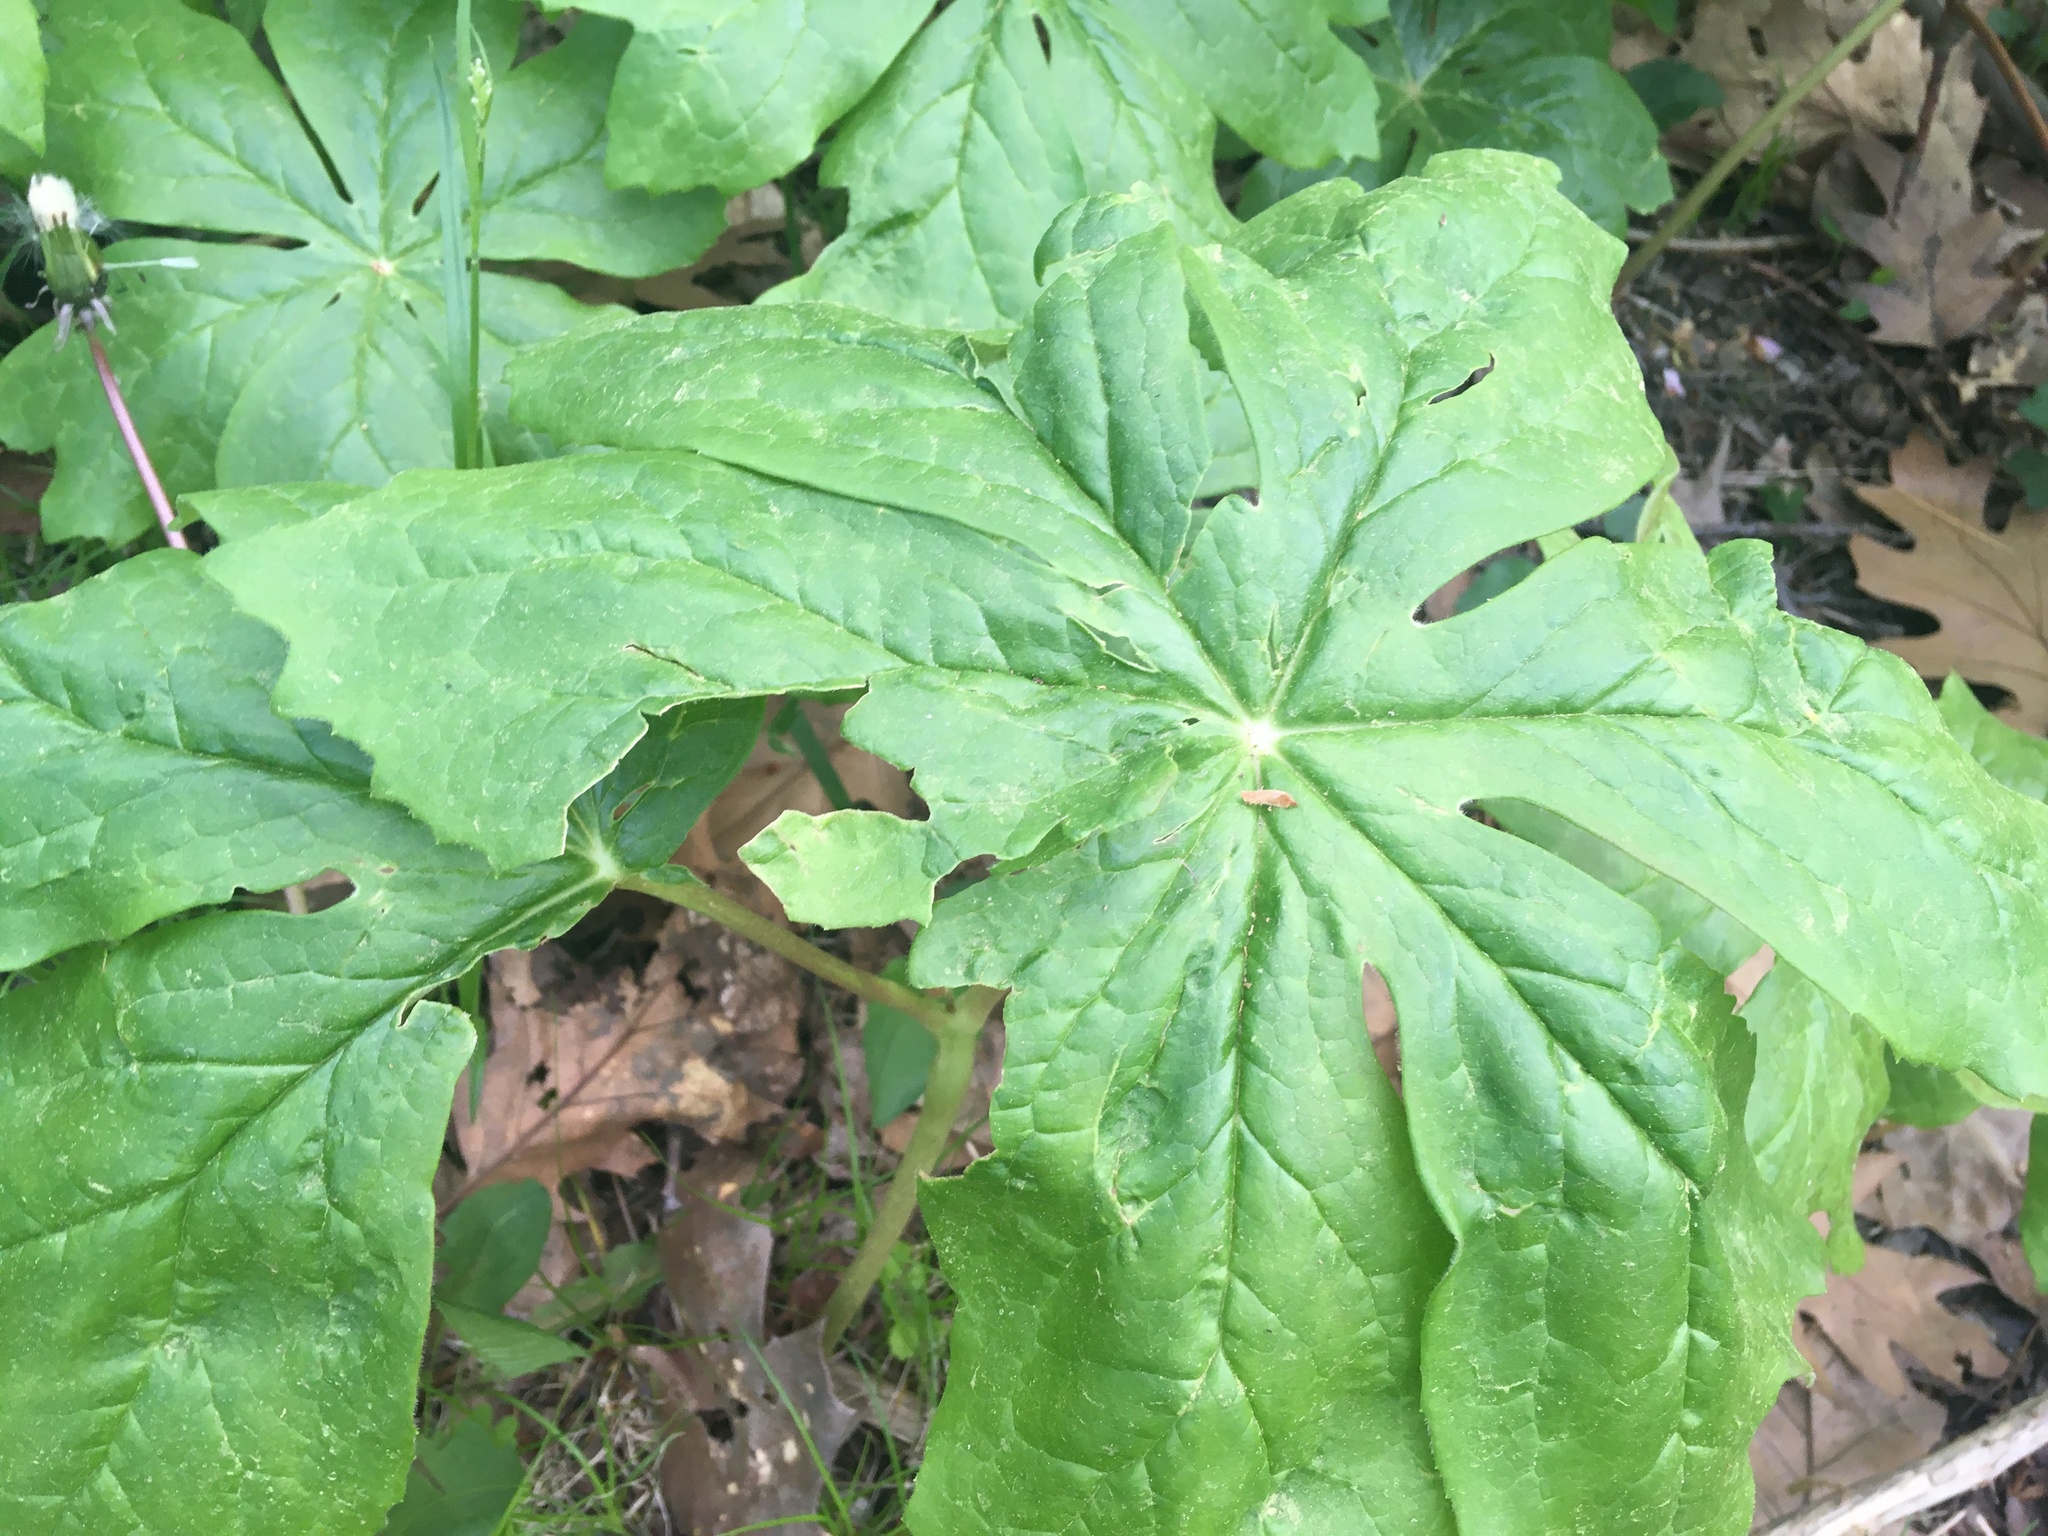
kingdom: Plantae
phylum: Tracheophyta
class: Magnoliopsida
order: Ranunculales
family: Berberidaceae
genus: Podophyllum
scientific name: Podophyllum peltatum
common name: Wild mandrake
